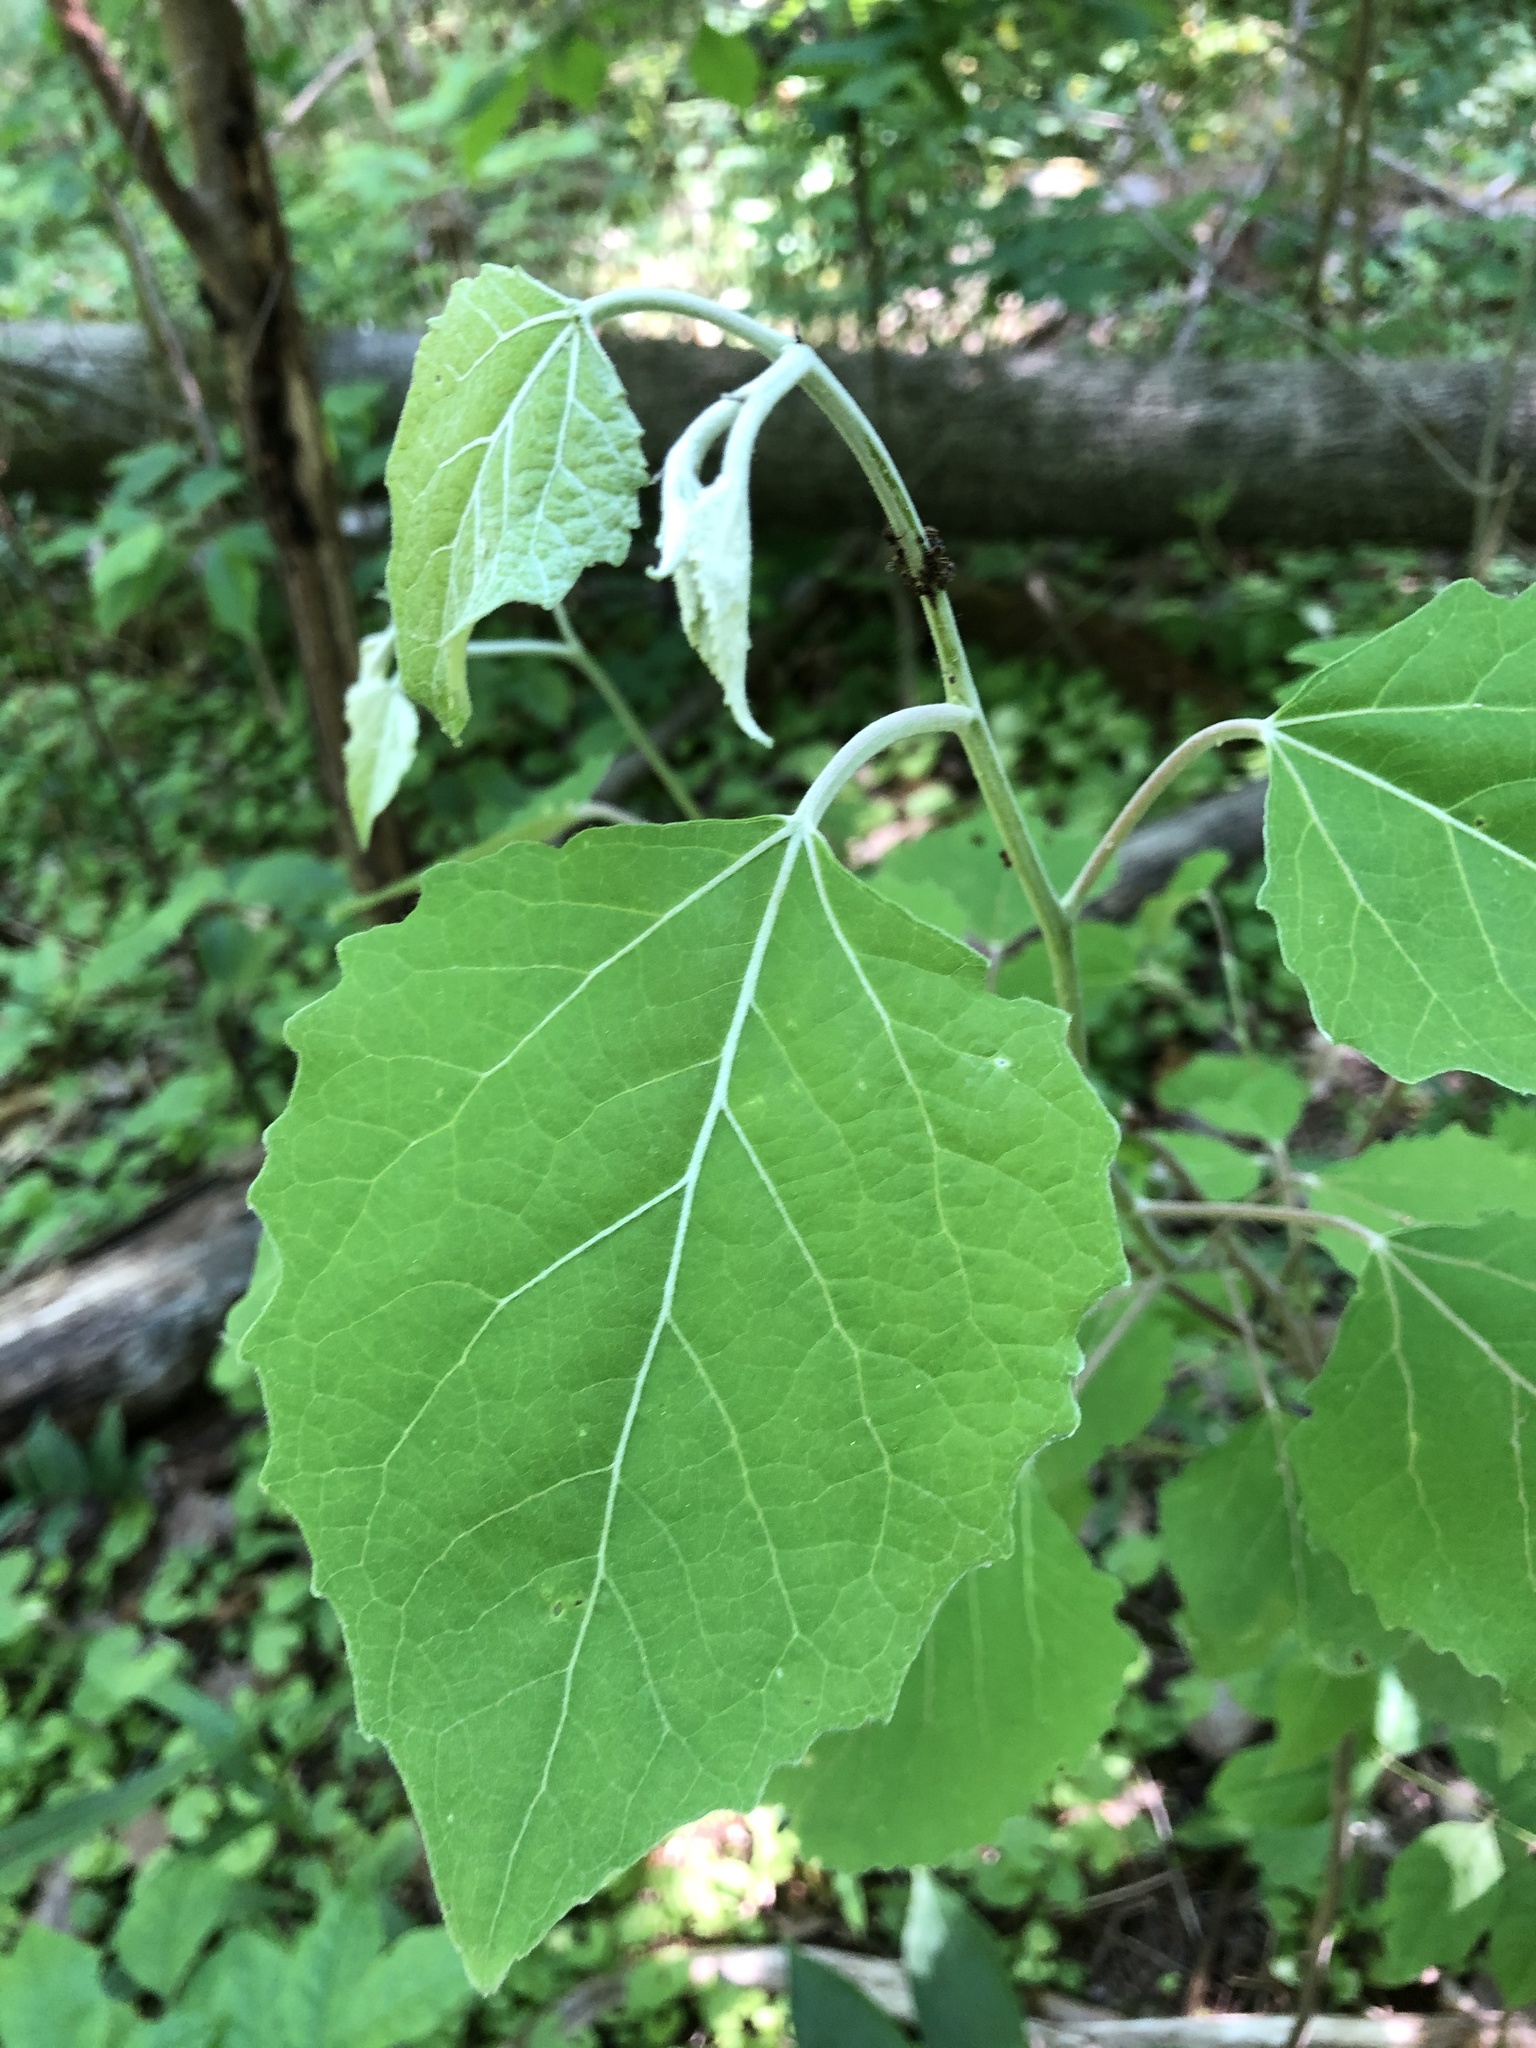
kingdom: Plantae
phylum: Tracheophyta
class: Magnoliopsida
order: Malpighiales
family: Salicaceae
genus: Populus
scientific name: Populus grandidentata
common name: Bigtooth aspen
